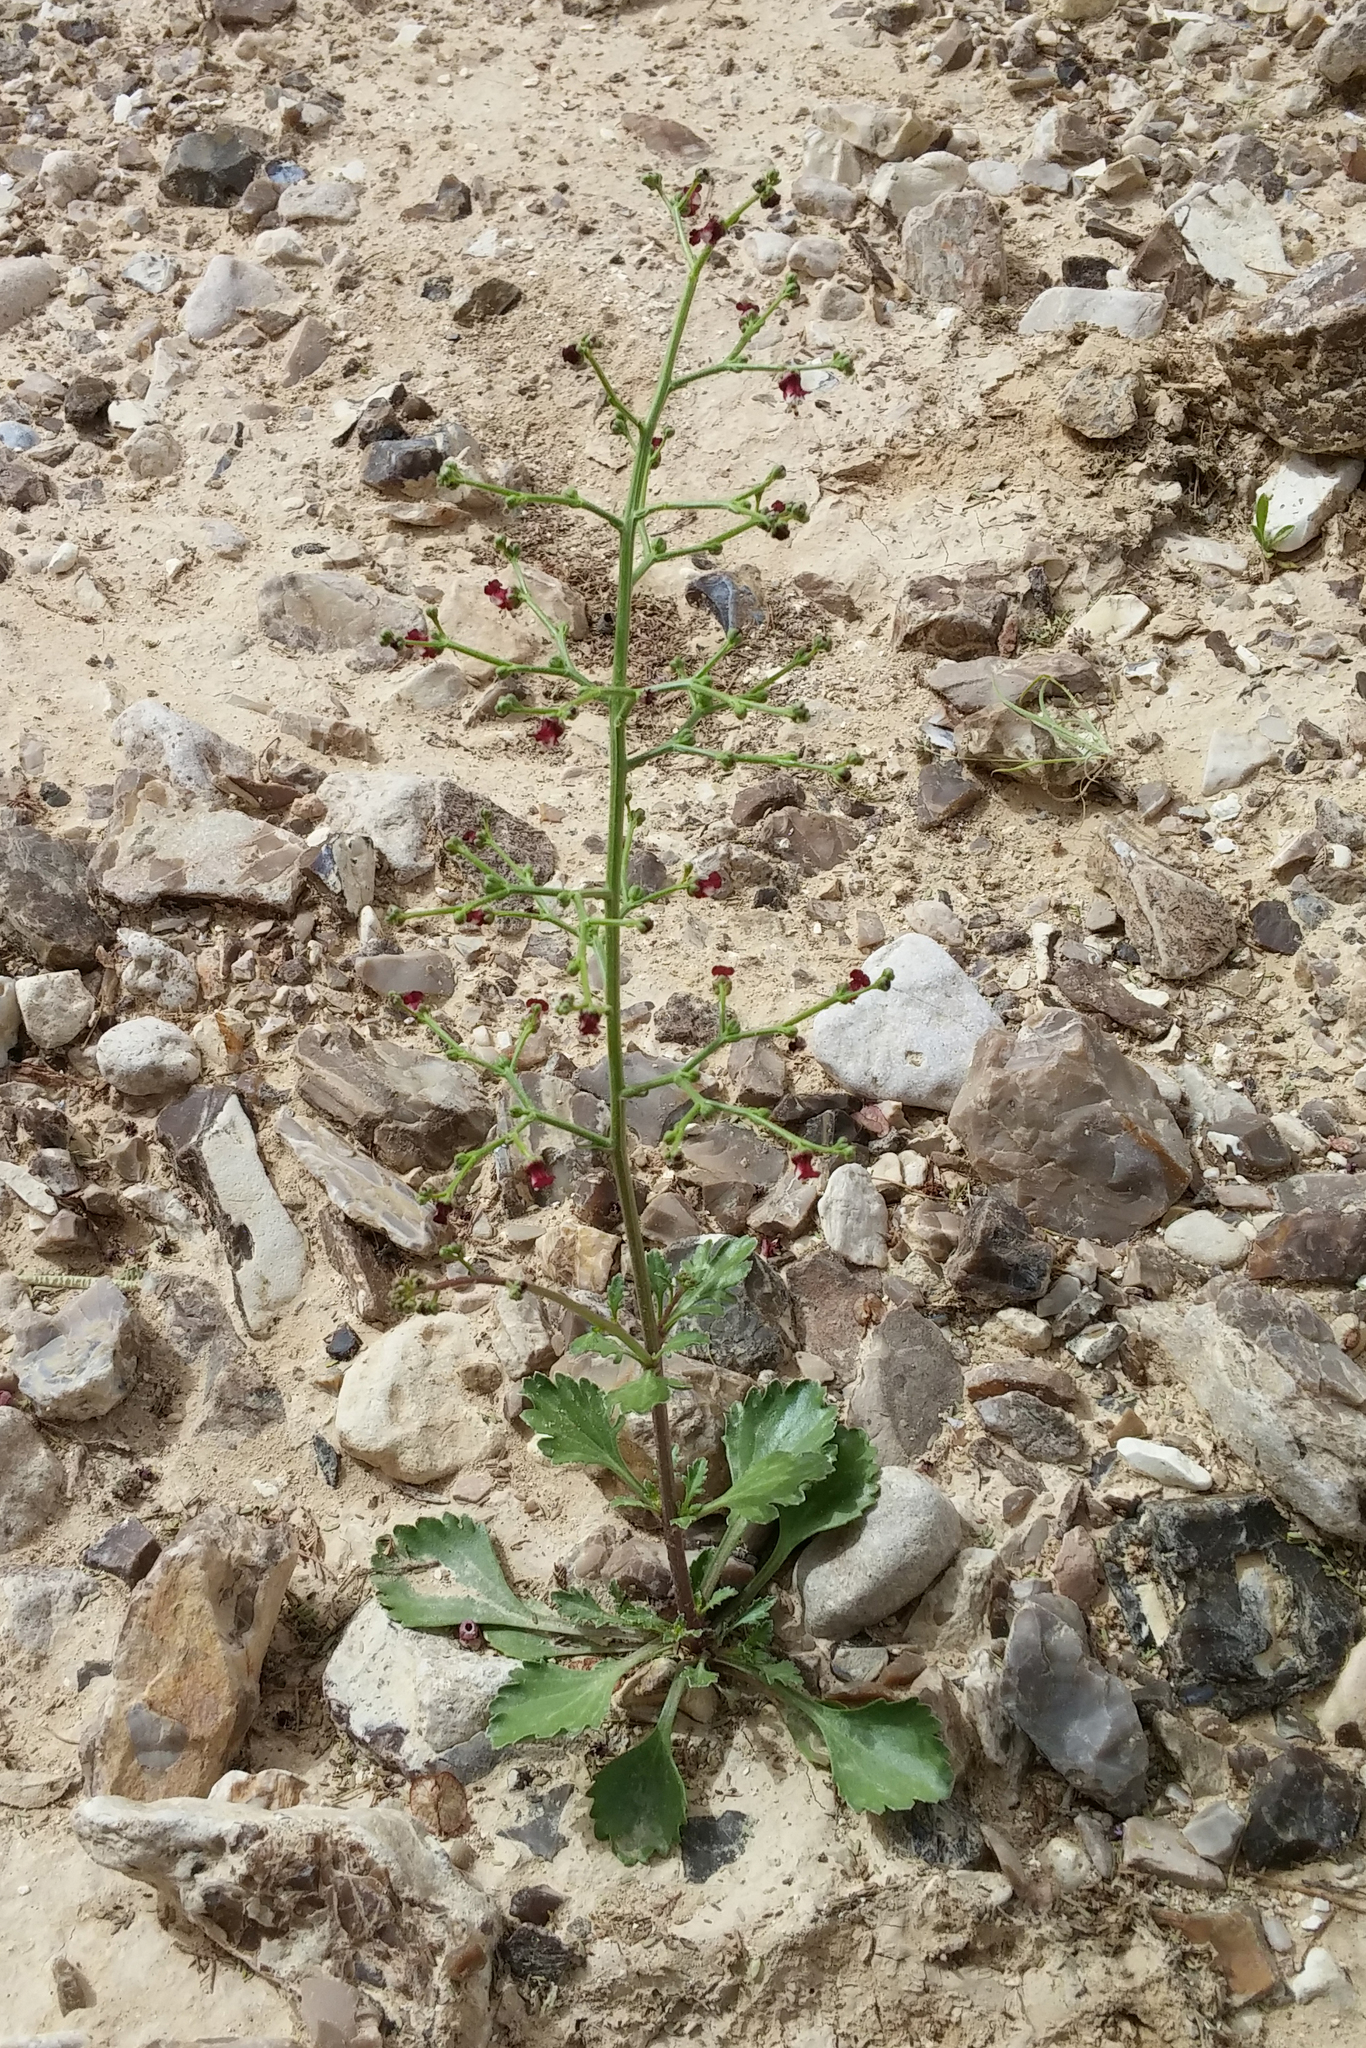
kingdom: Plantae
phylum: Tracheophyta
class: Magnoliopsida
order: Lamiales
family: Scrophulariaceae
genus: Scrophularia
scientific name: Scrophularia deserti
